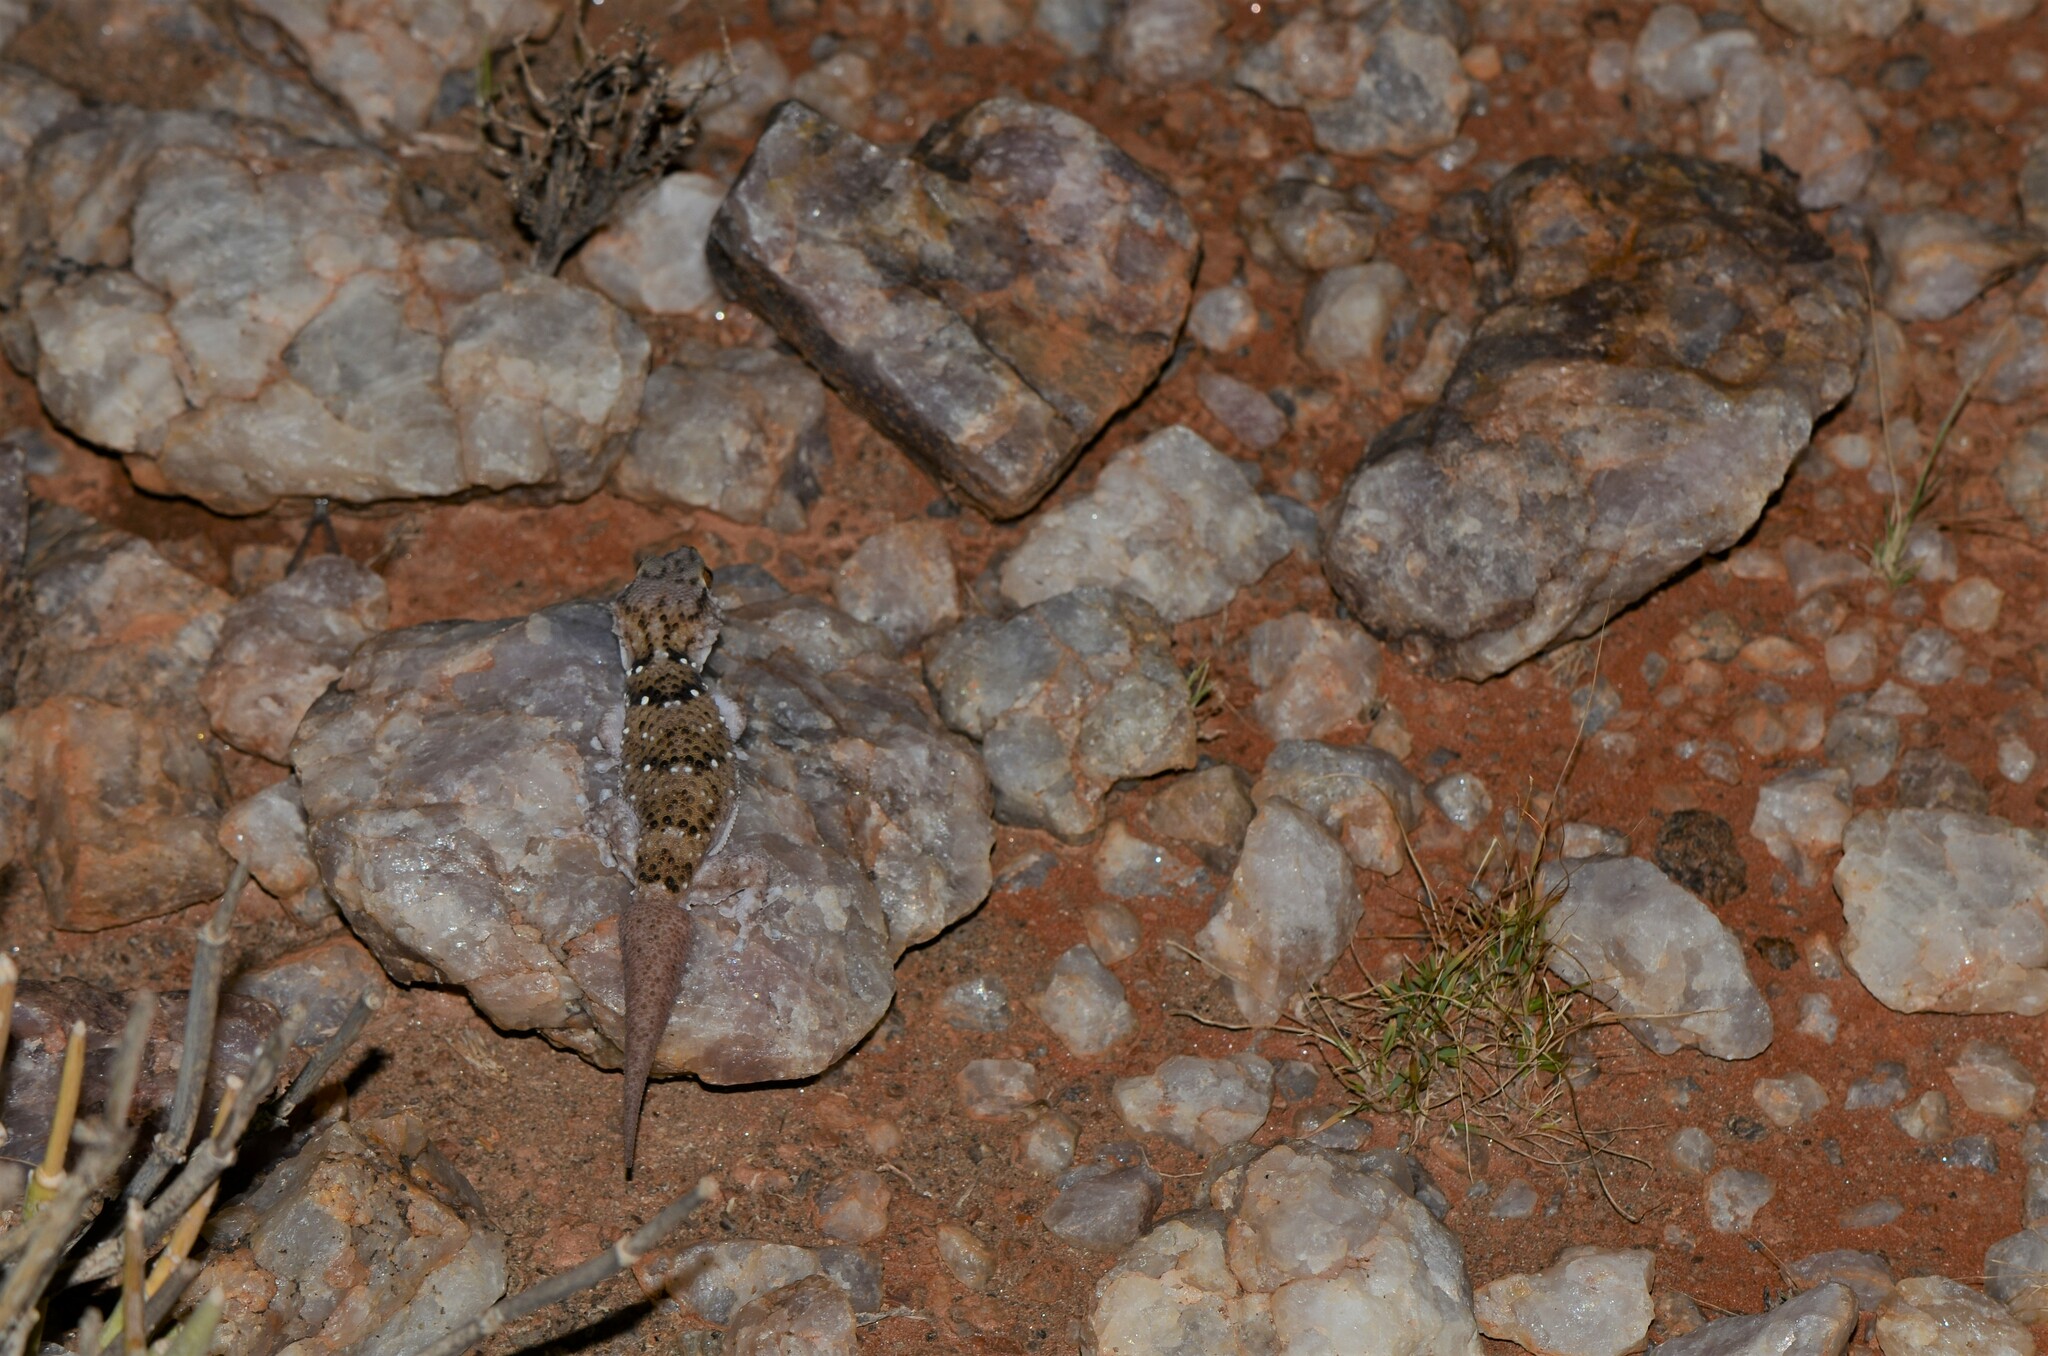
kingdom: Animalia
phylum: Chordata
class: Squamata
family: Gekkonidae
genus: Chondrodactylus
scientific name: Chondrodactylus laevigatus
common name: Fischer's thick-toed gecko
